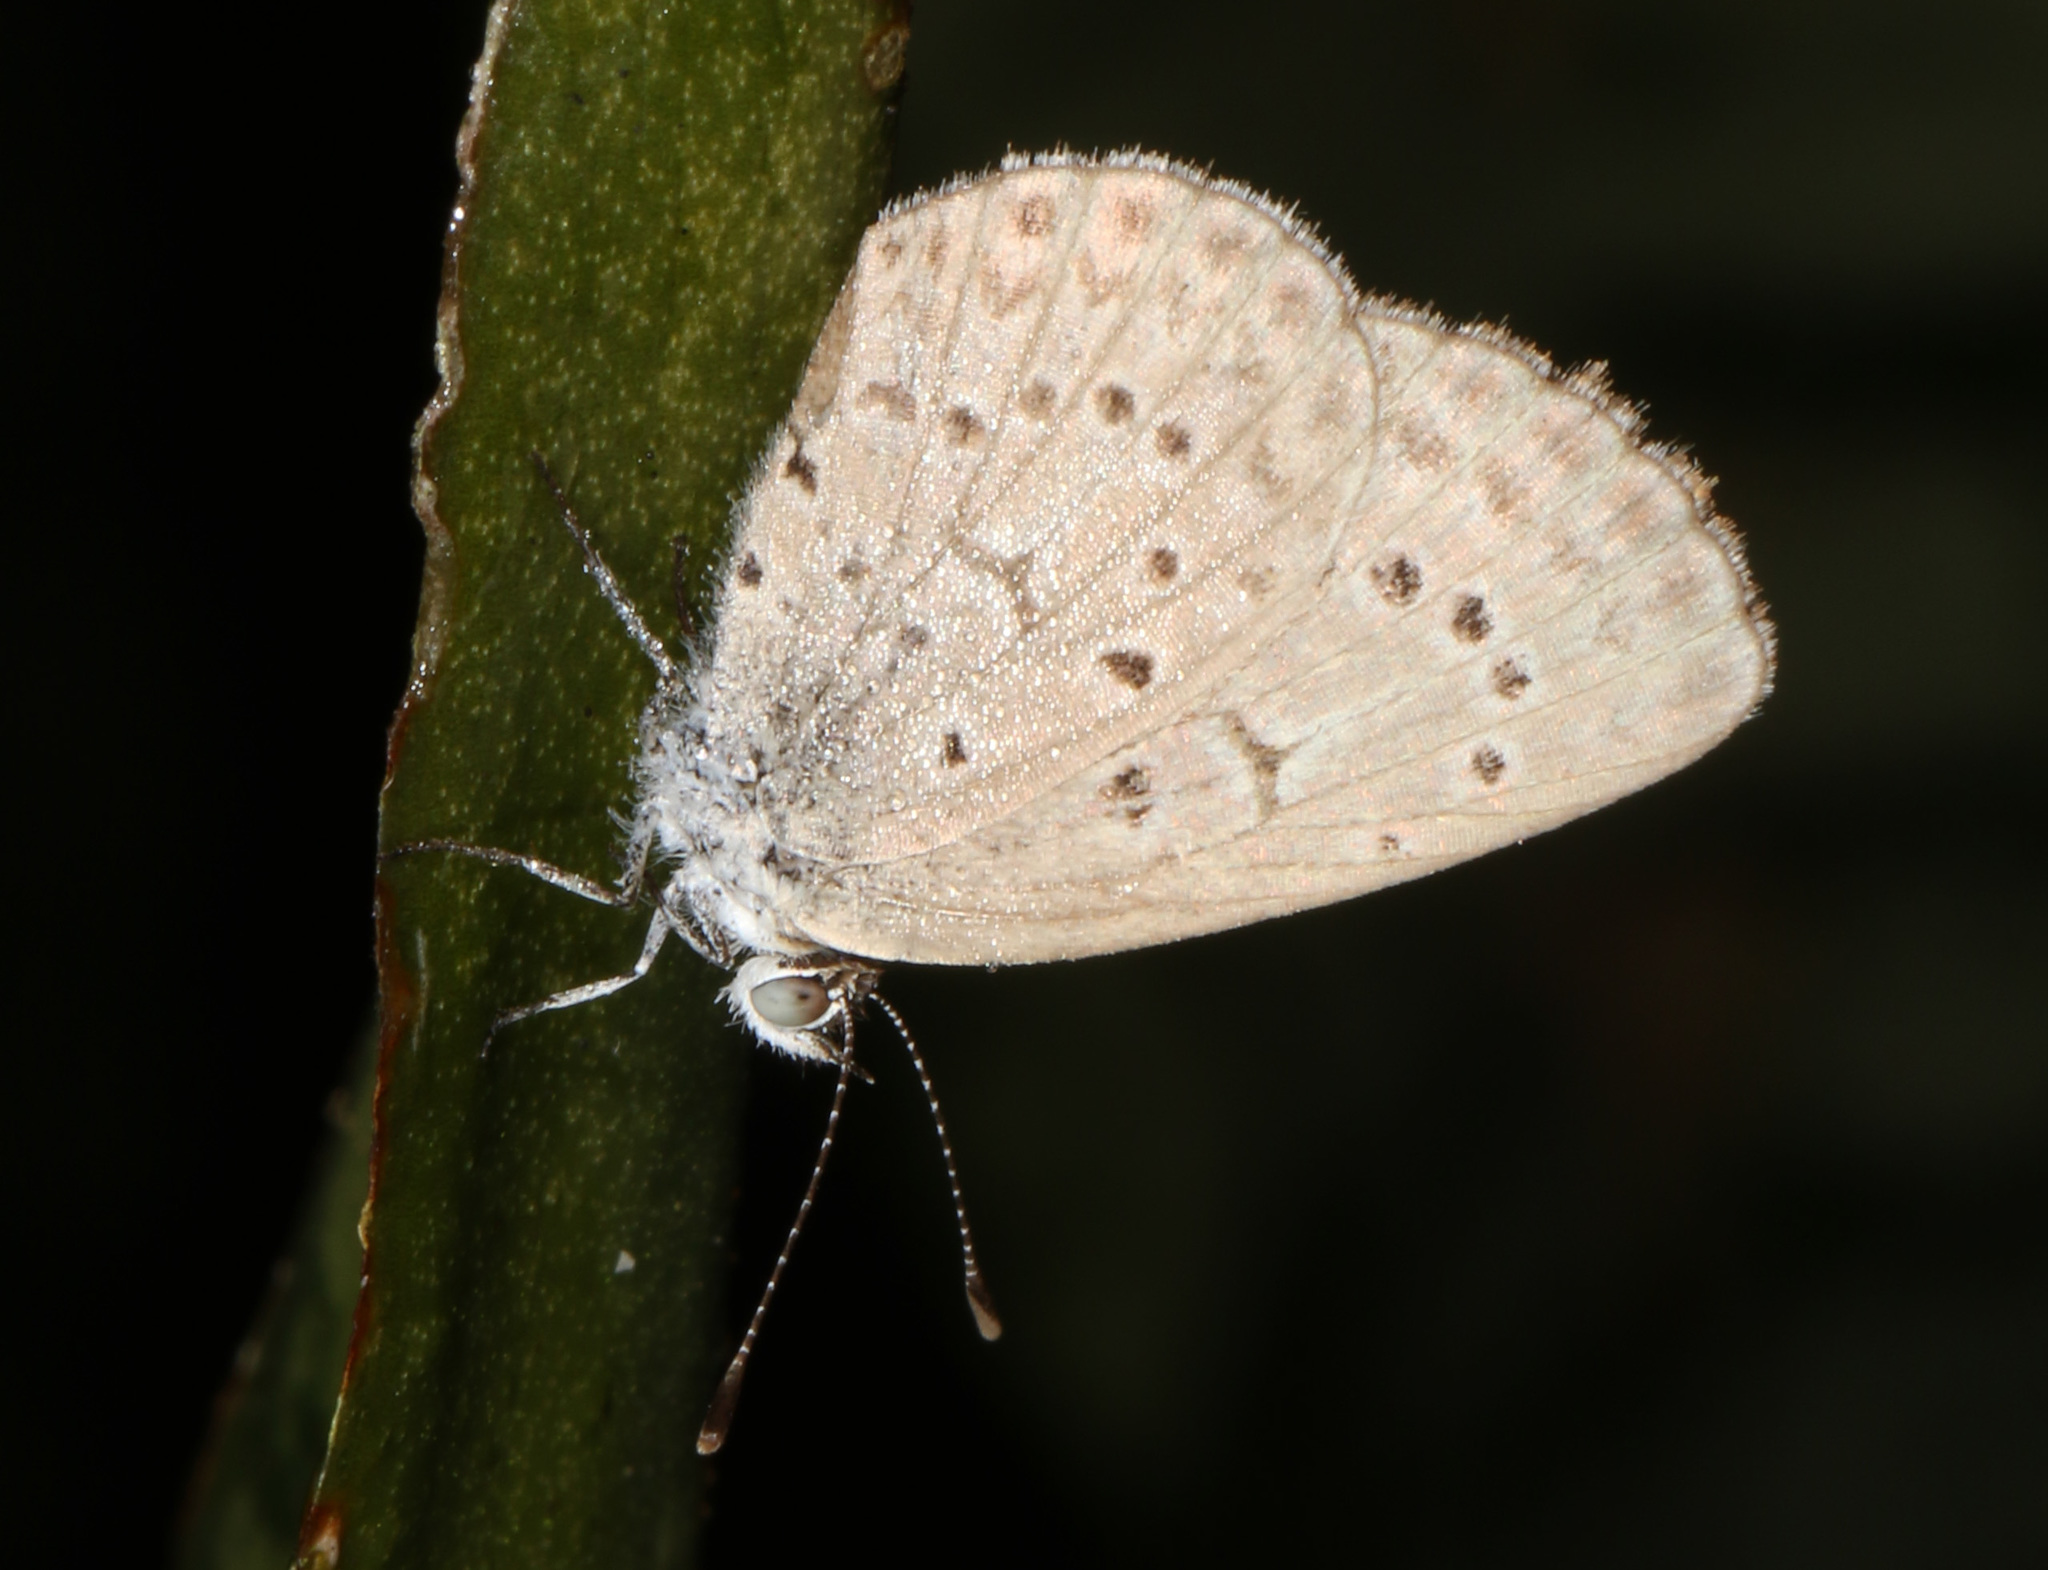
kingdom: Animalia
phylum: Arthropoda
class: Insecta
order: Lepidoptera
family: Lycaenidae
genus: Zizeeria
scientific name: Zizeeria knysna
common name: African grass blue
